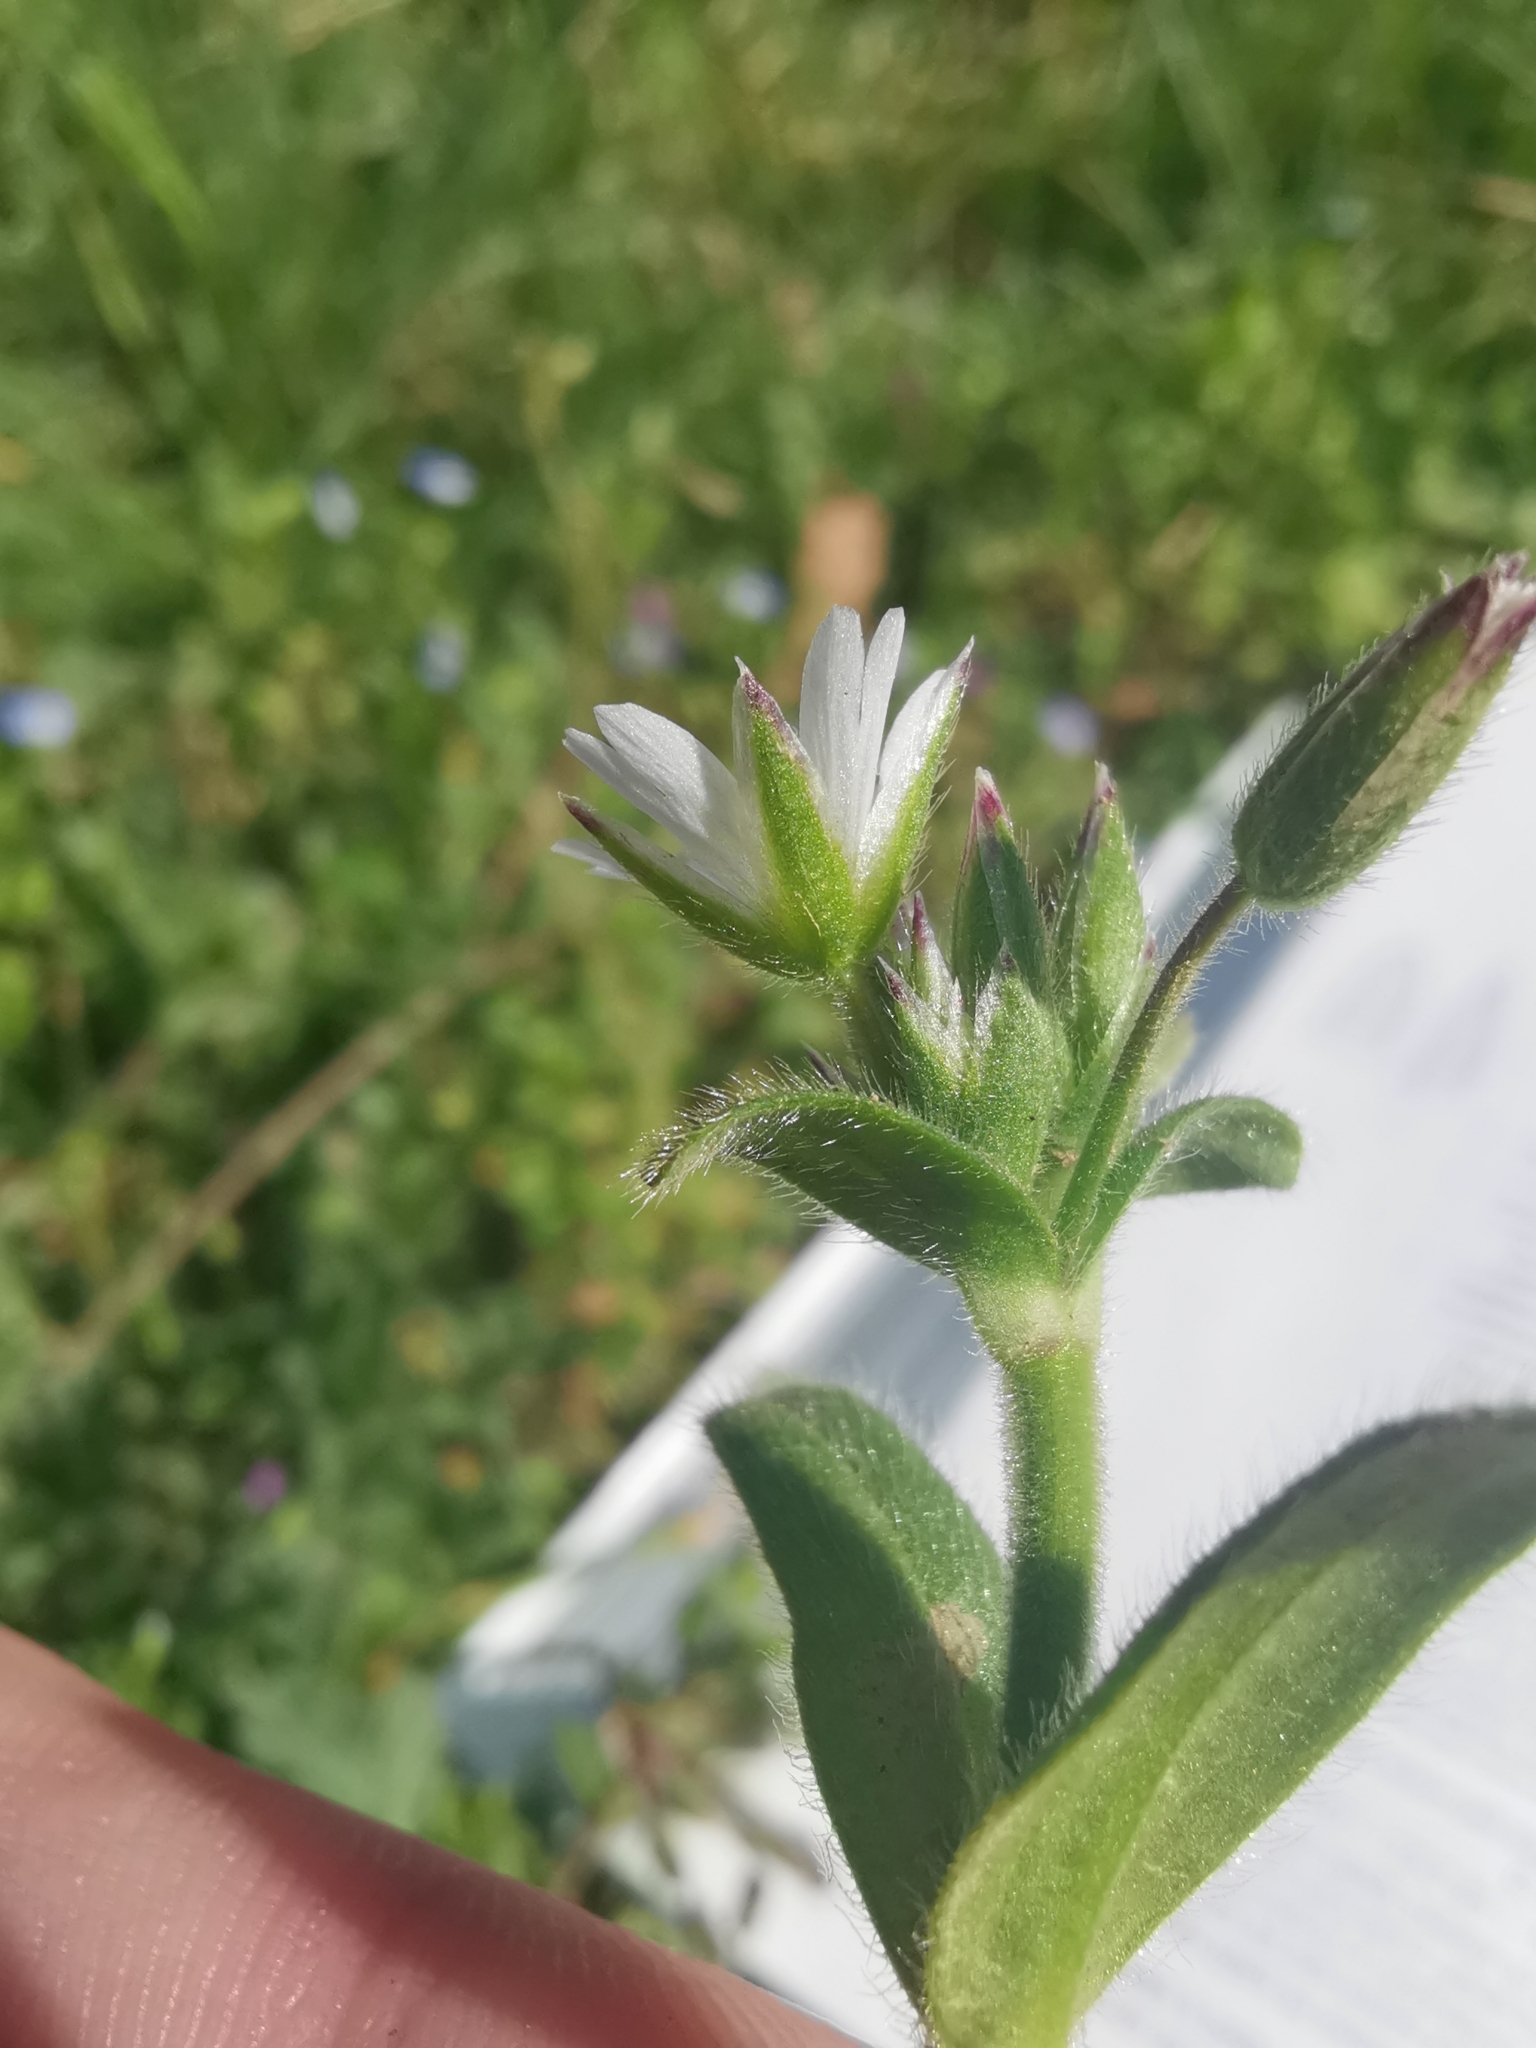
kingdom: Plantae
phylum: Tracheophyta
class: Magnoliopsida
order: Caryophyllales
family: Caryophyllaceae
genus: Cerastium
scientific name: Cerastium fontanum
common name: Common mouse-ear
